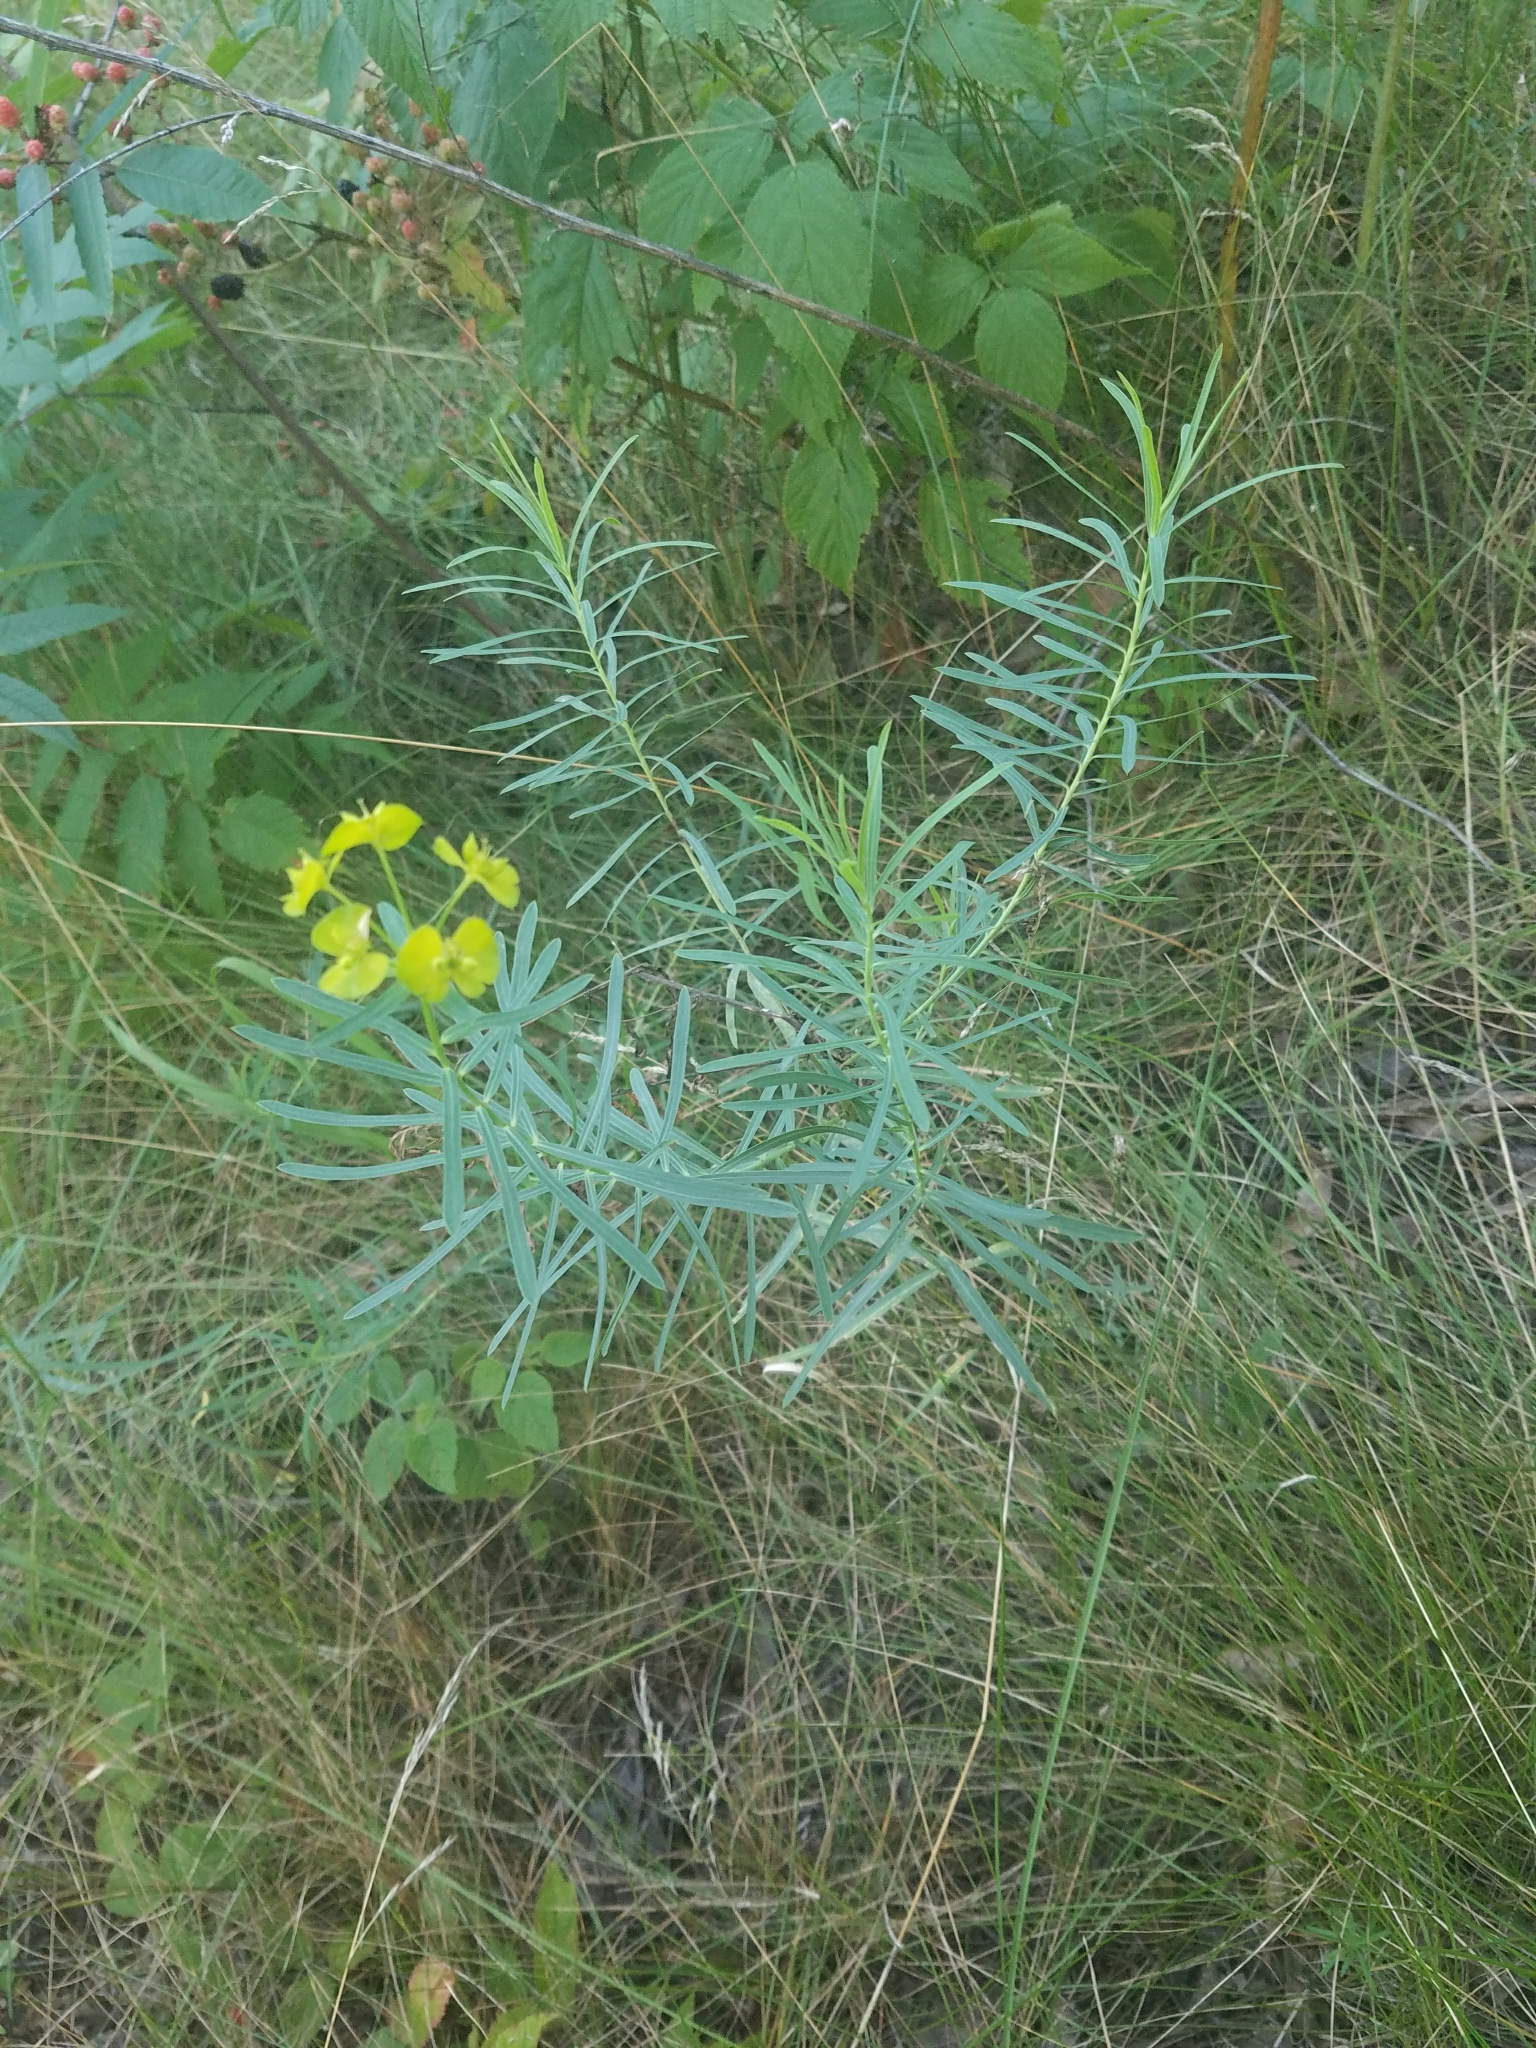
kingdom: Plantae
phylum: Tracheophyta
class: Magnoliopsida
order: Malpighiales
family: Euphorbiaceae
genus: Euphorbia
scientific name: Euphorbia cyparissias
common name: Cypress spurge
